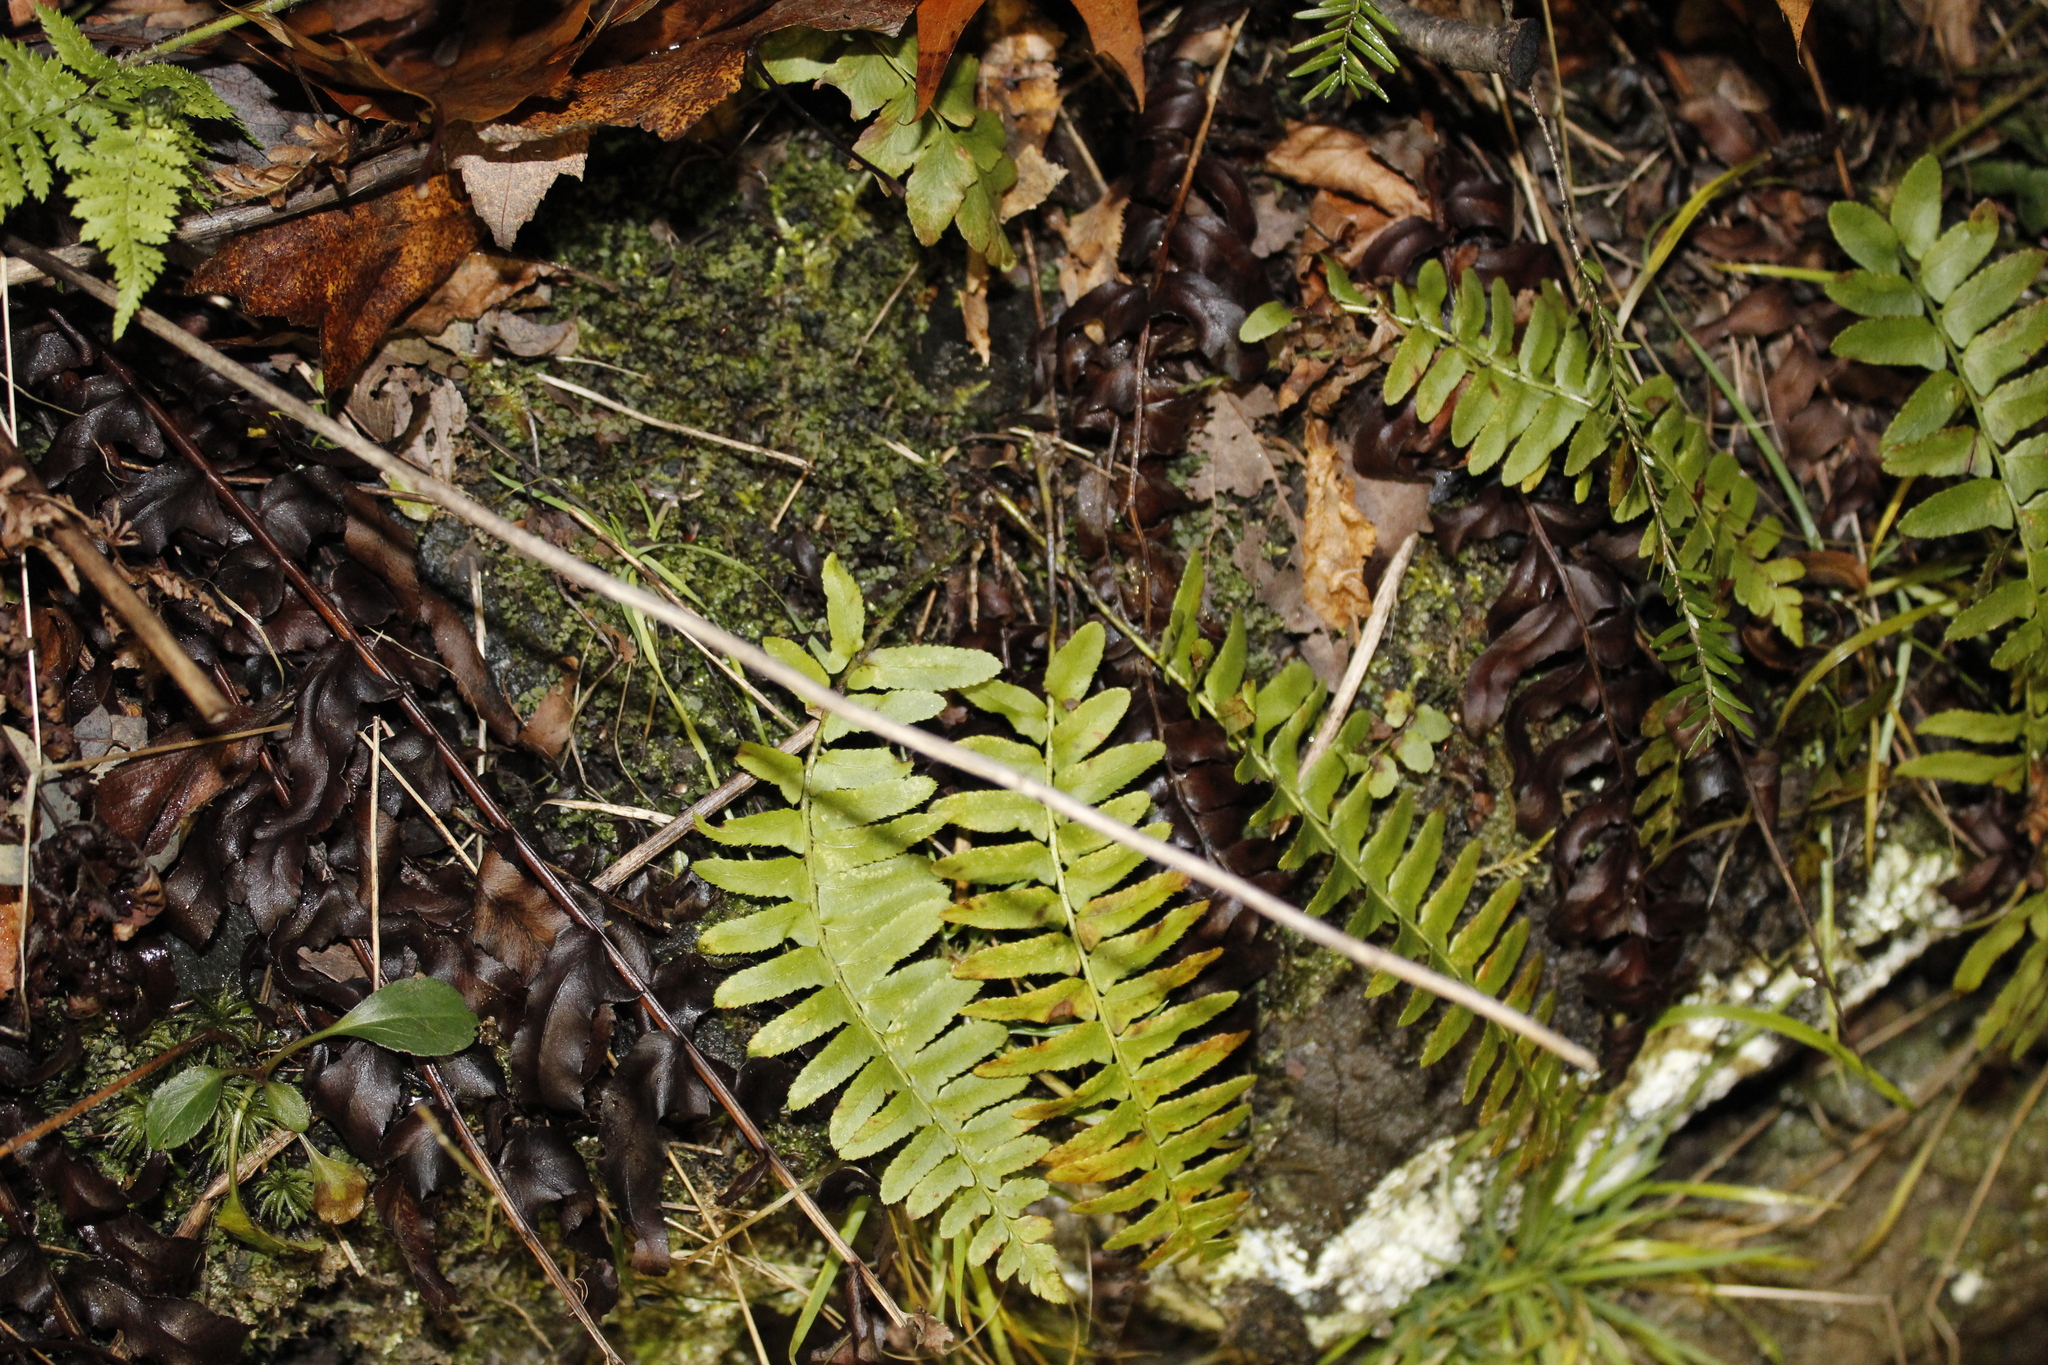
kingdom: Plantae
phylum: Tracheophyta
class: Polypodiopsida
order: Polypodiales
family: Dryopteridaceae
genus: Polystichum
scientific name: Polystichum acrostichoides
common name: Christmas fern
